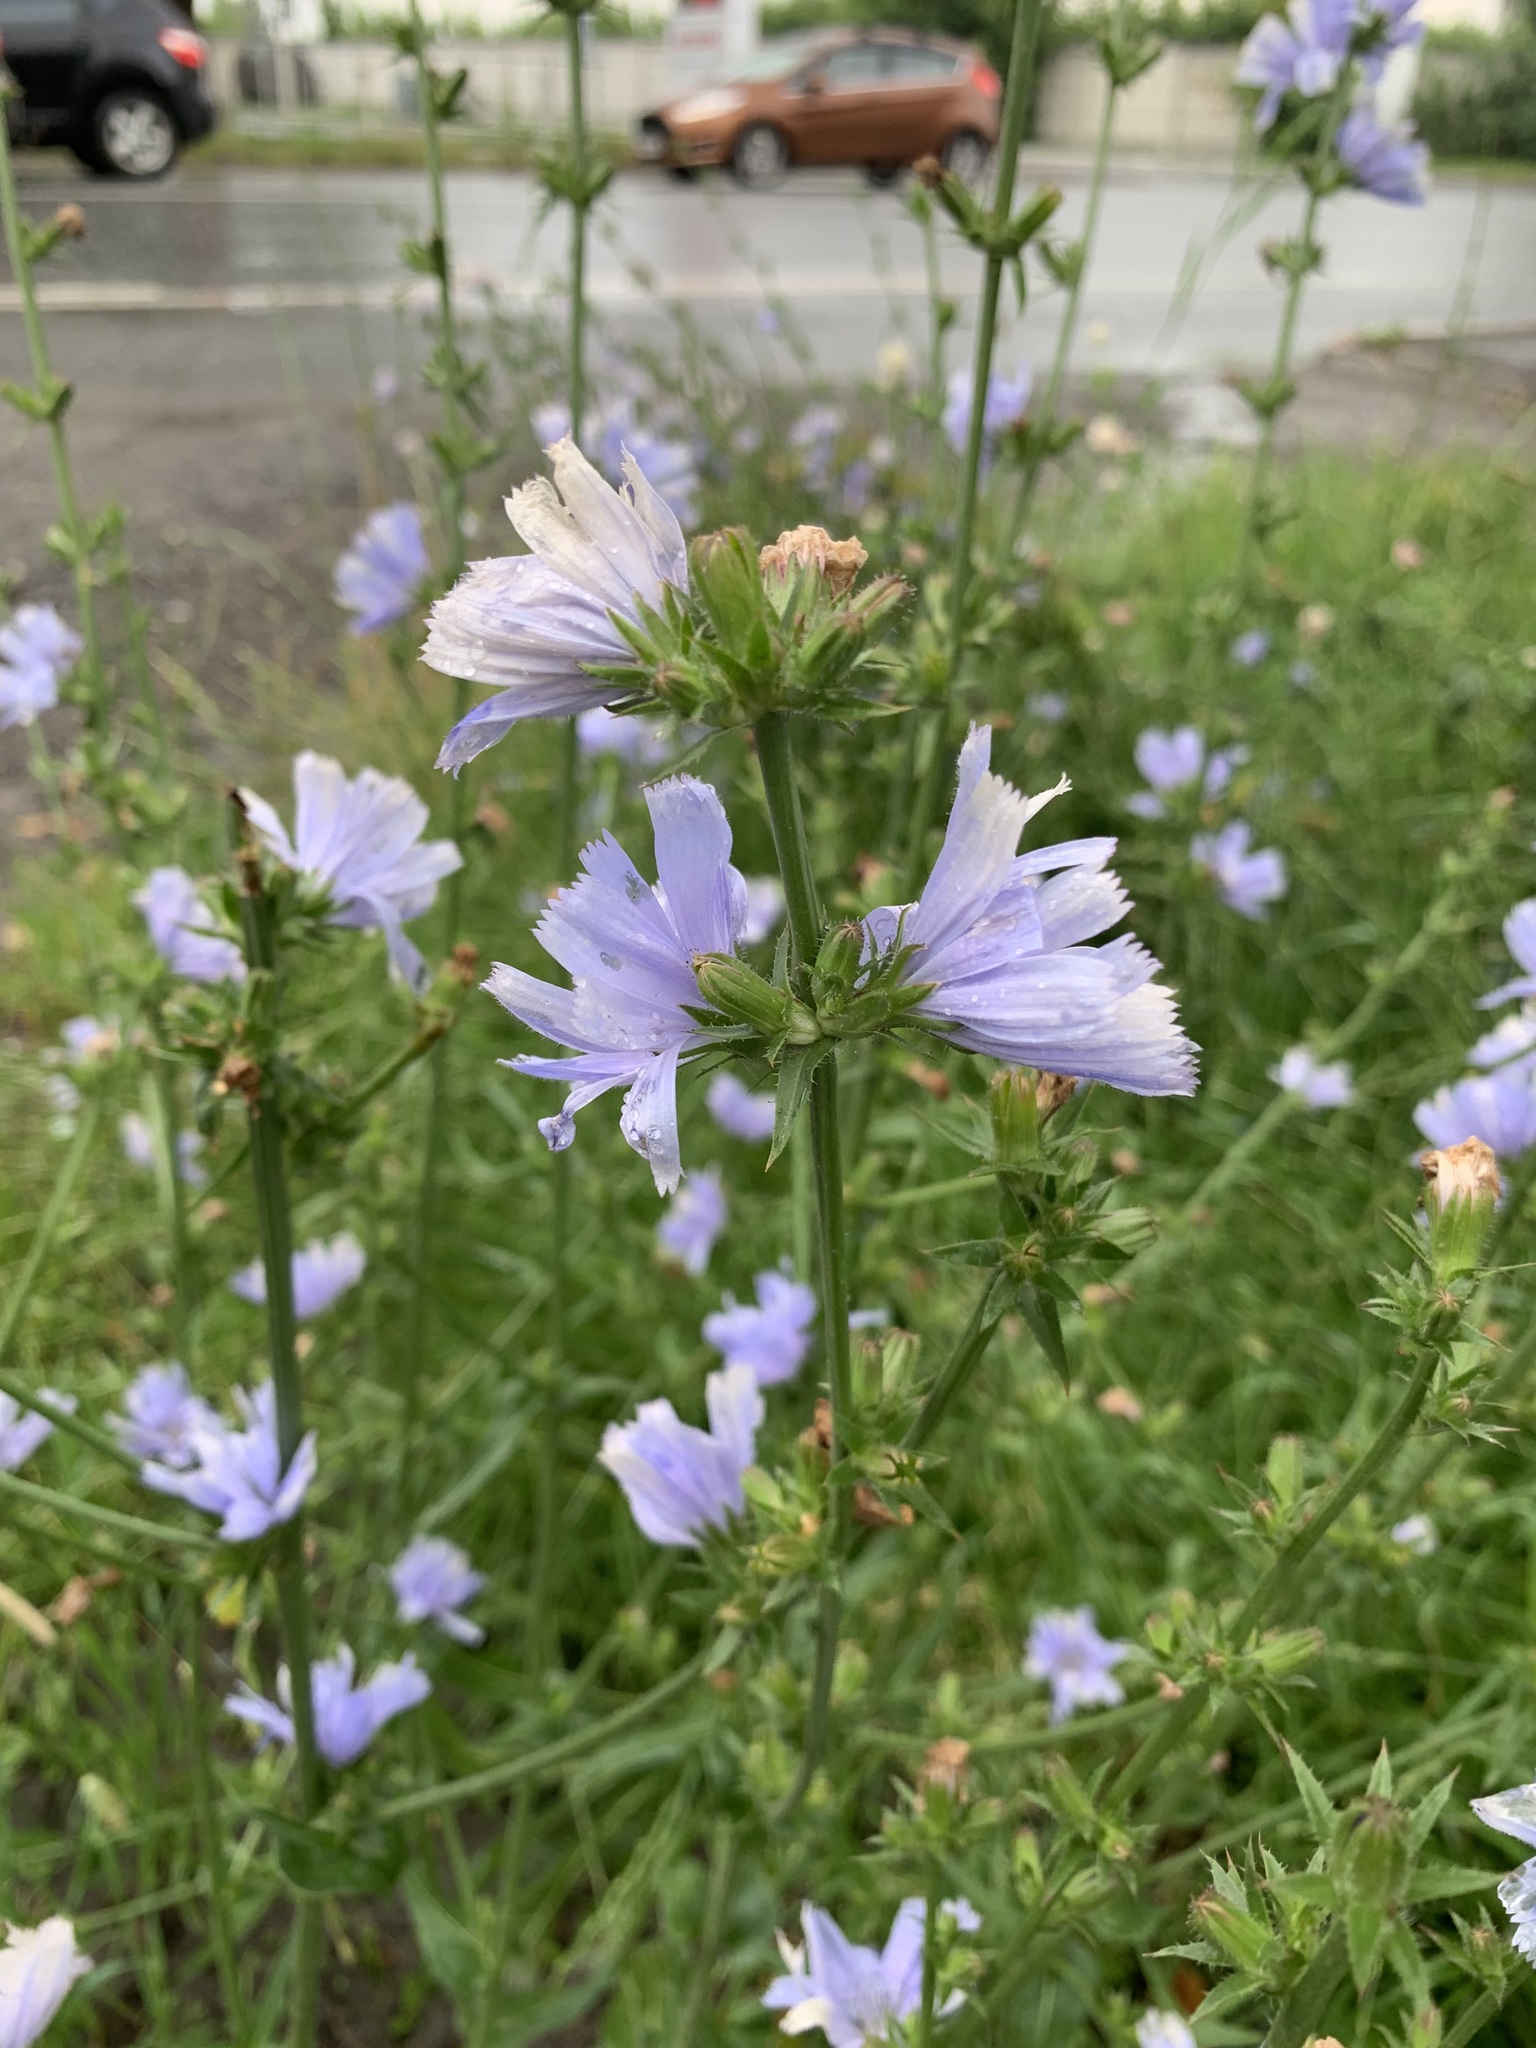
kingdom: Plantae
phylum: Tracheophyta
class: Magnoliopsida
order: Asterales
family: Asteraceae
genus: Cichorium
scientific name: Cichorium intybus
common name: Chicory
